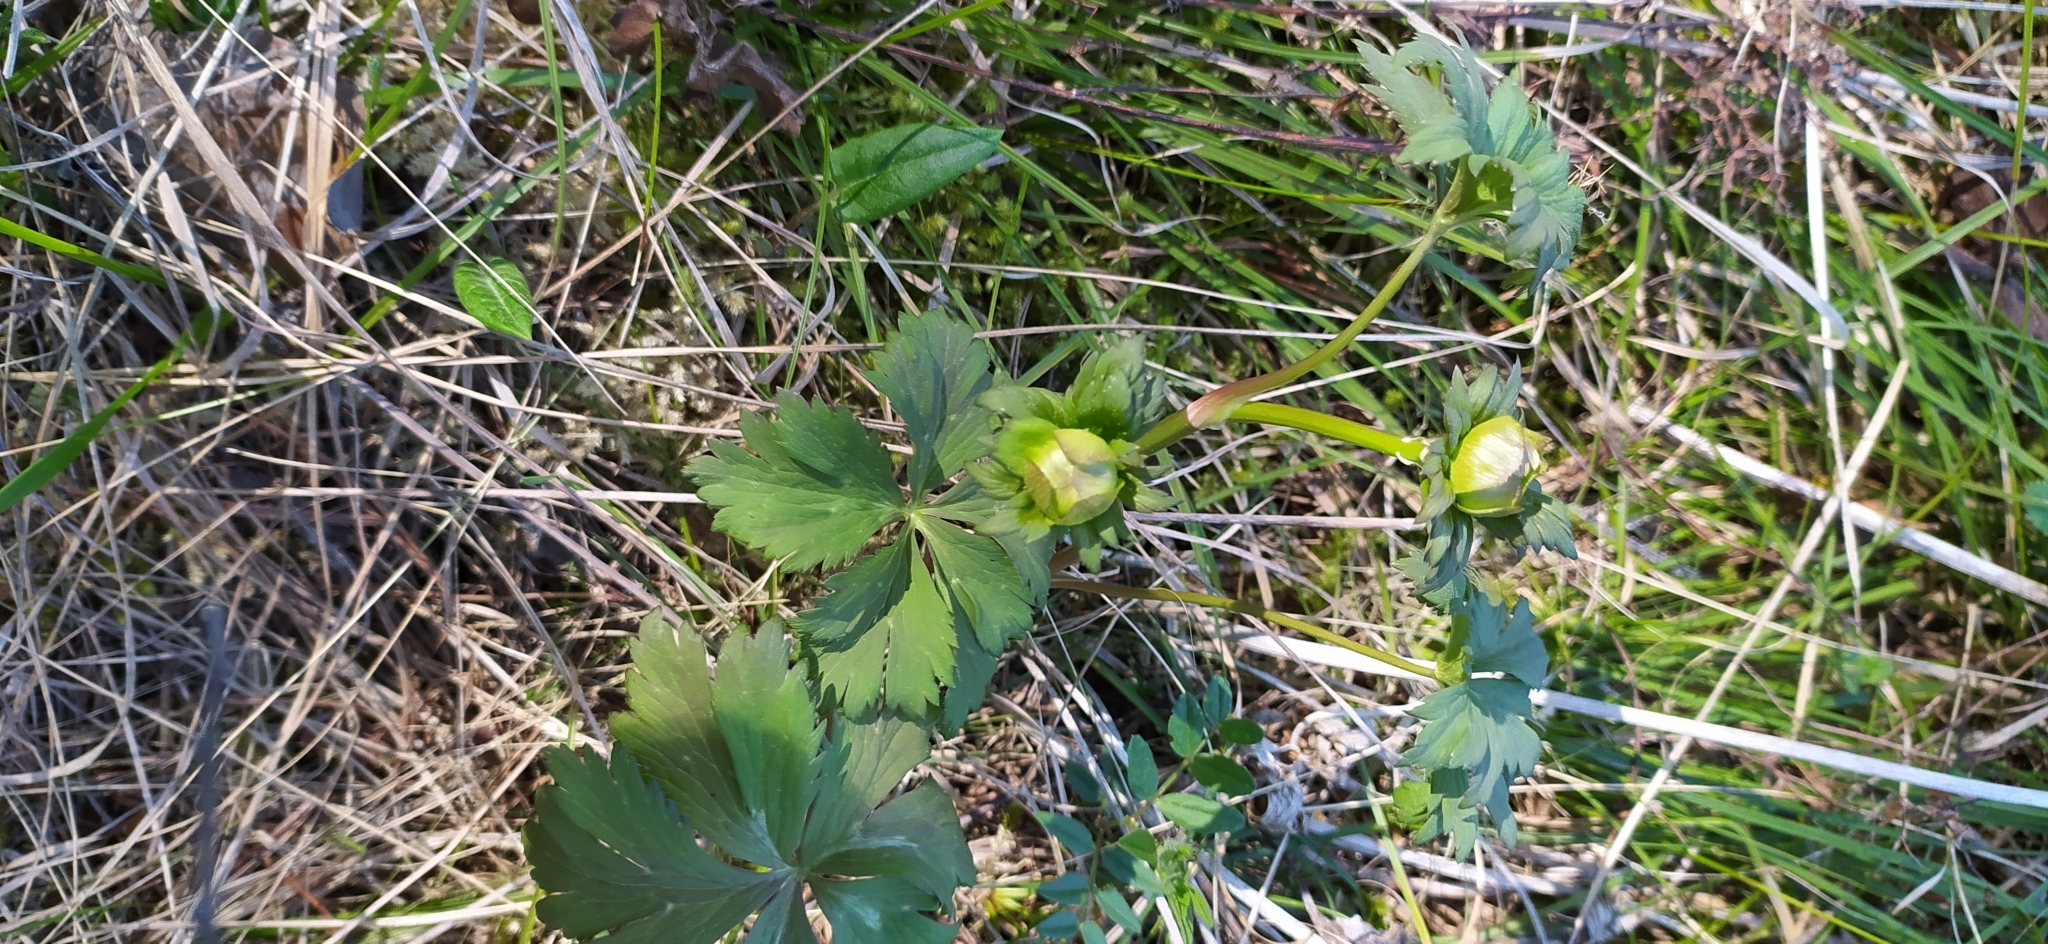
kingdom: Plantae
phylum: Tracheophyta
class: Magnoliopsida
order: Ranunculales
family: Ranunculaceae
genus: Trollius
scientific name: Trollius europaeus
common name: European globeflower
